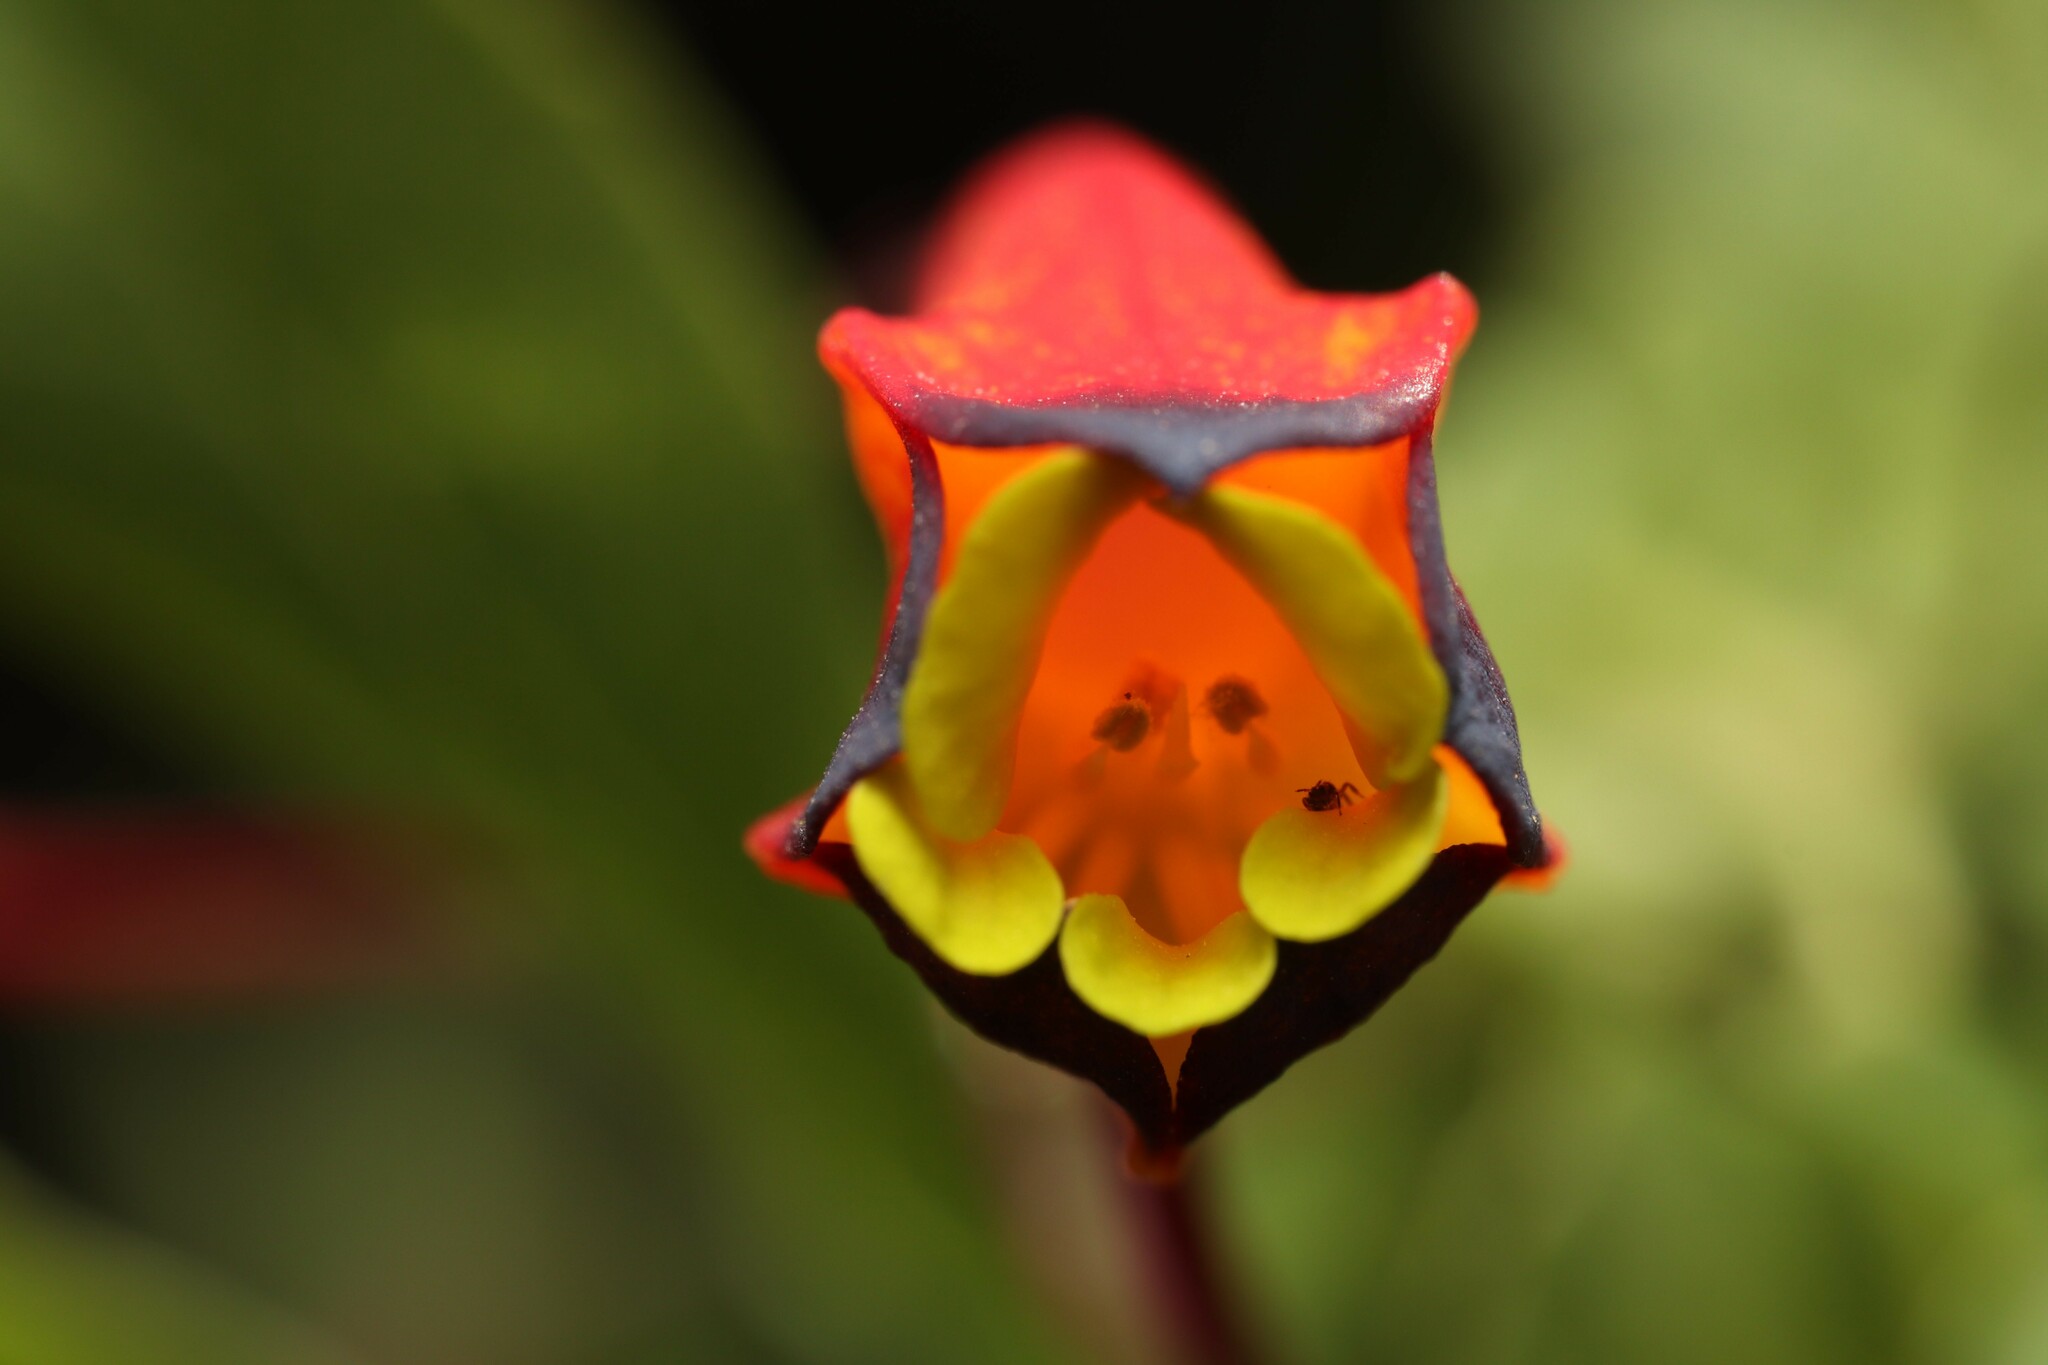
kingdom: Plantae
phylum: Tracheophyta
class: Magnoliopsida
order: Brassicales
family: Tropaeolaceae
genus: Tropaeolum
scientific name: Tropaeolum tricolor
